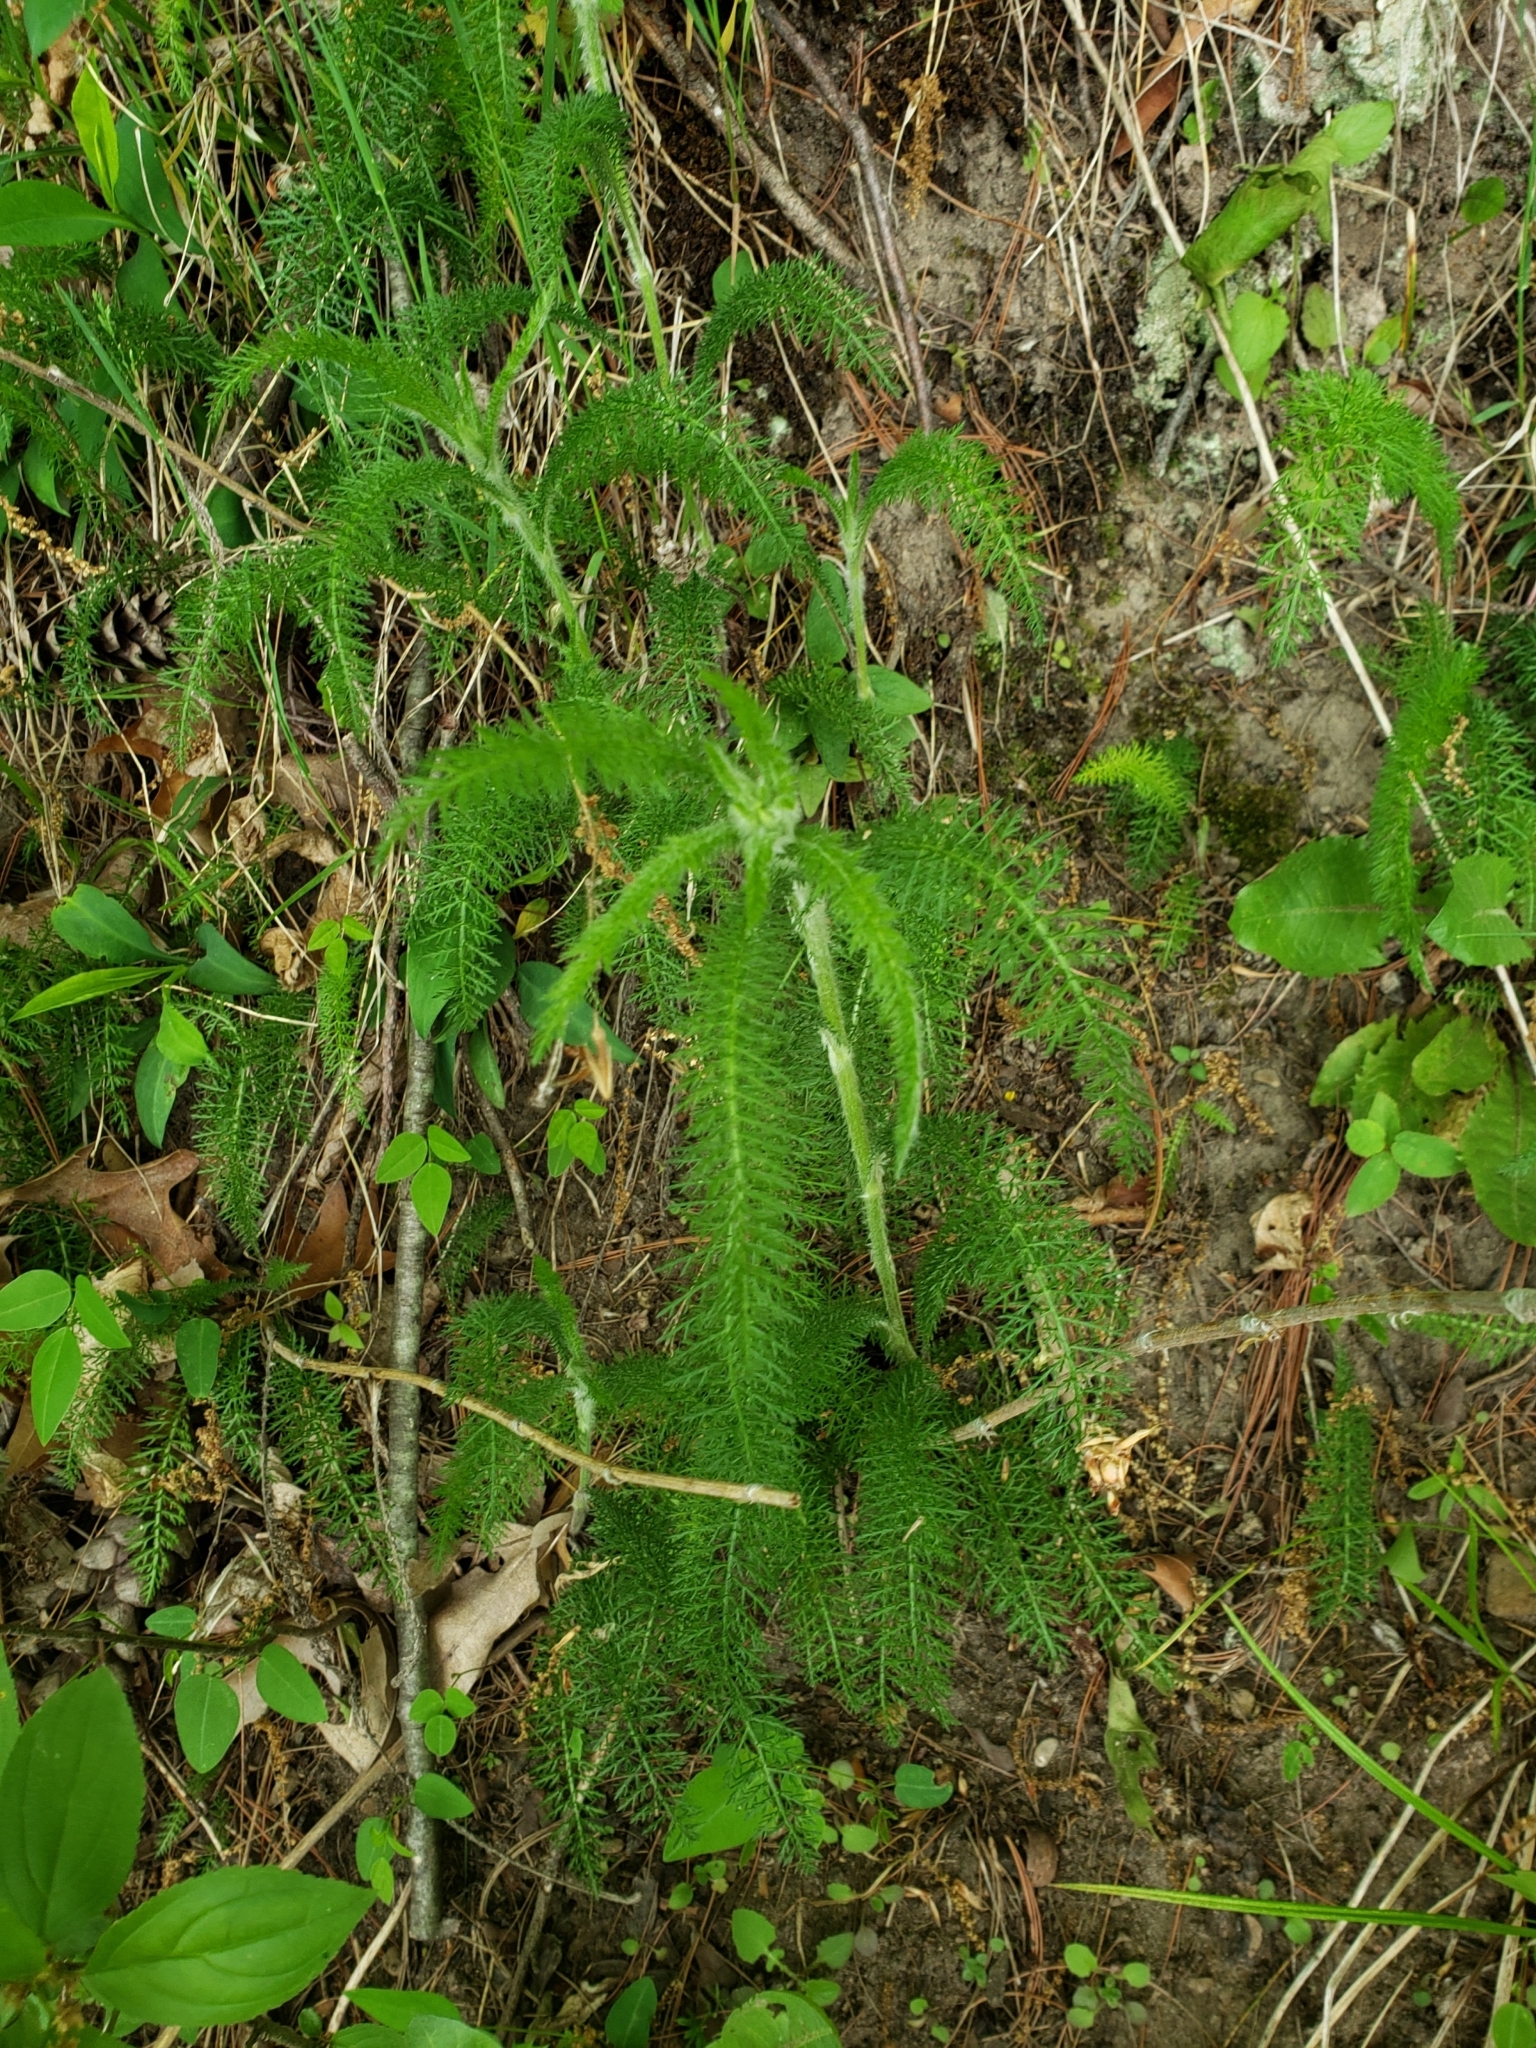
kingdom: Plantae
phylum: Tracheophyta
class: Magnoliopsida
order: Asterales
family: Asteraceae
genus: Achillea
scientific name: Achillea millefolium
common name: Yarrow
